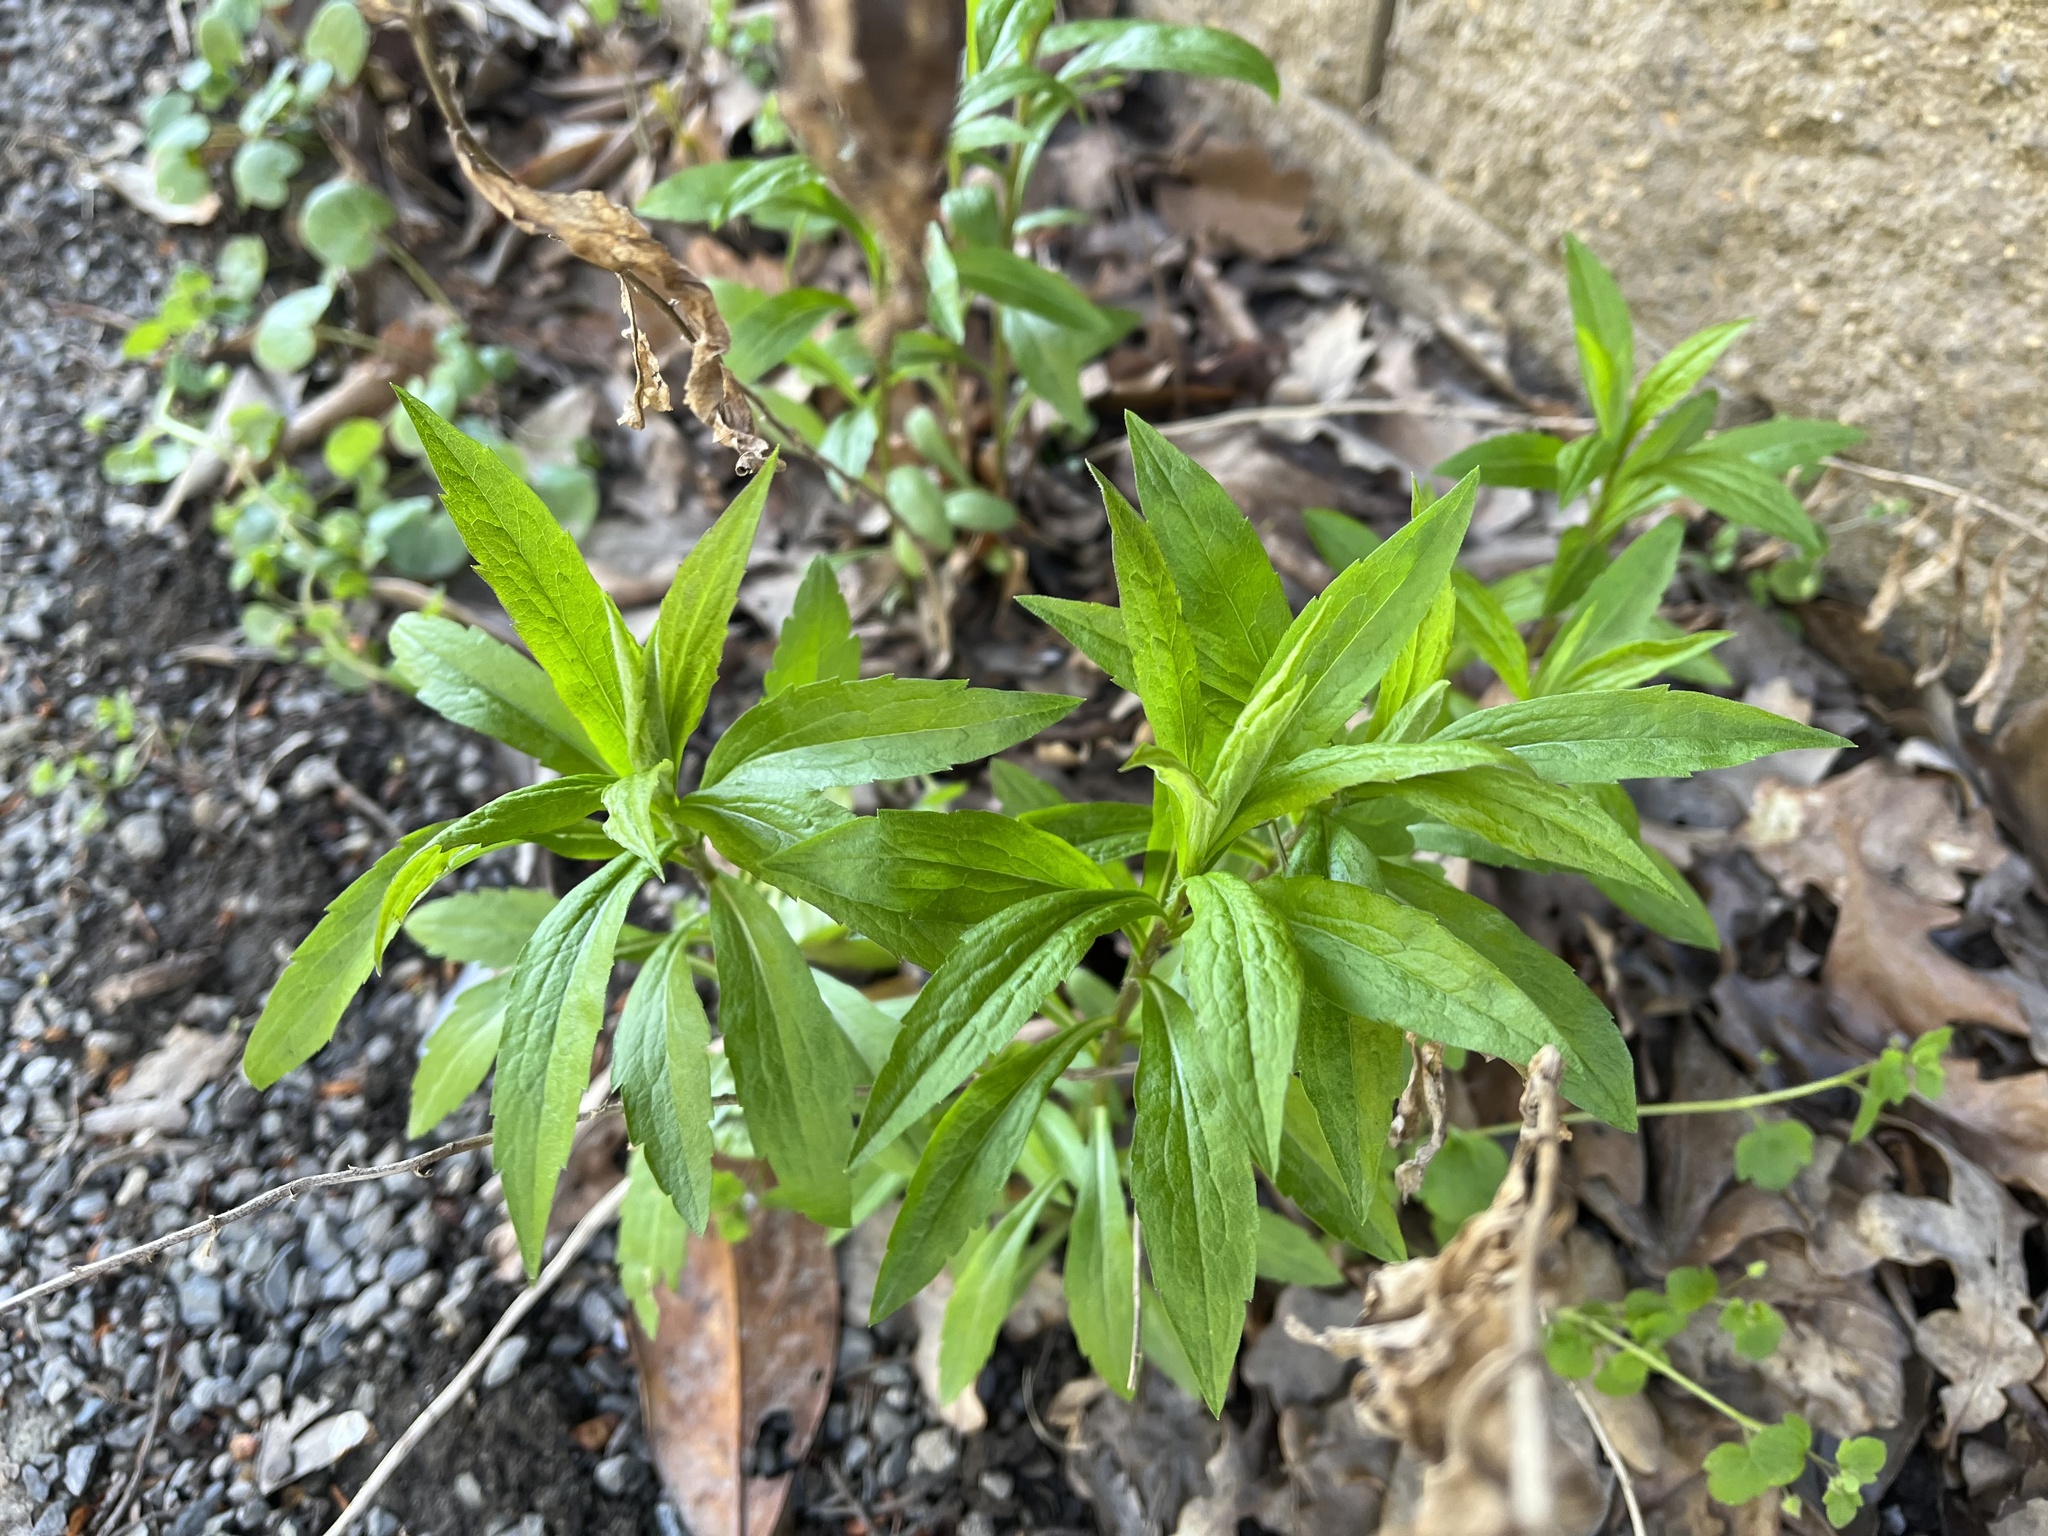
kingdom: Plantae
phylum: Tracheophyta
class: Magnoliopsida
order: Asterales
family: Asteraceae
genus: Solidago
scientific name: Solidago canadensis
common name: Canada goldenrod
